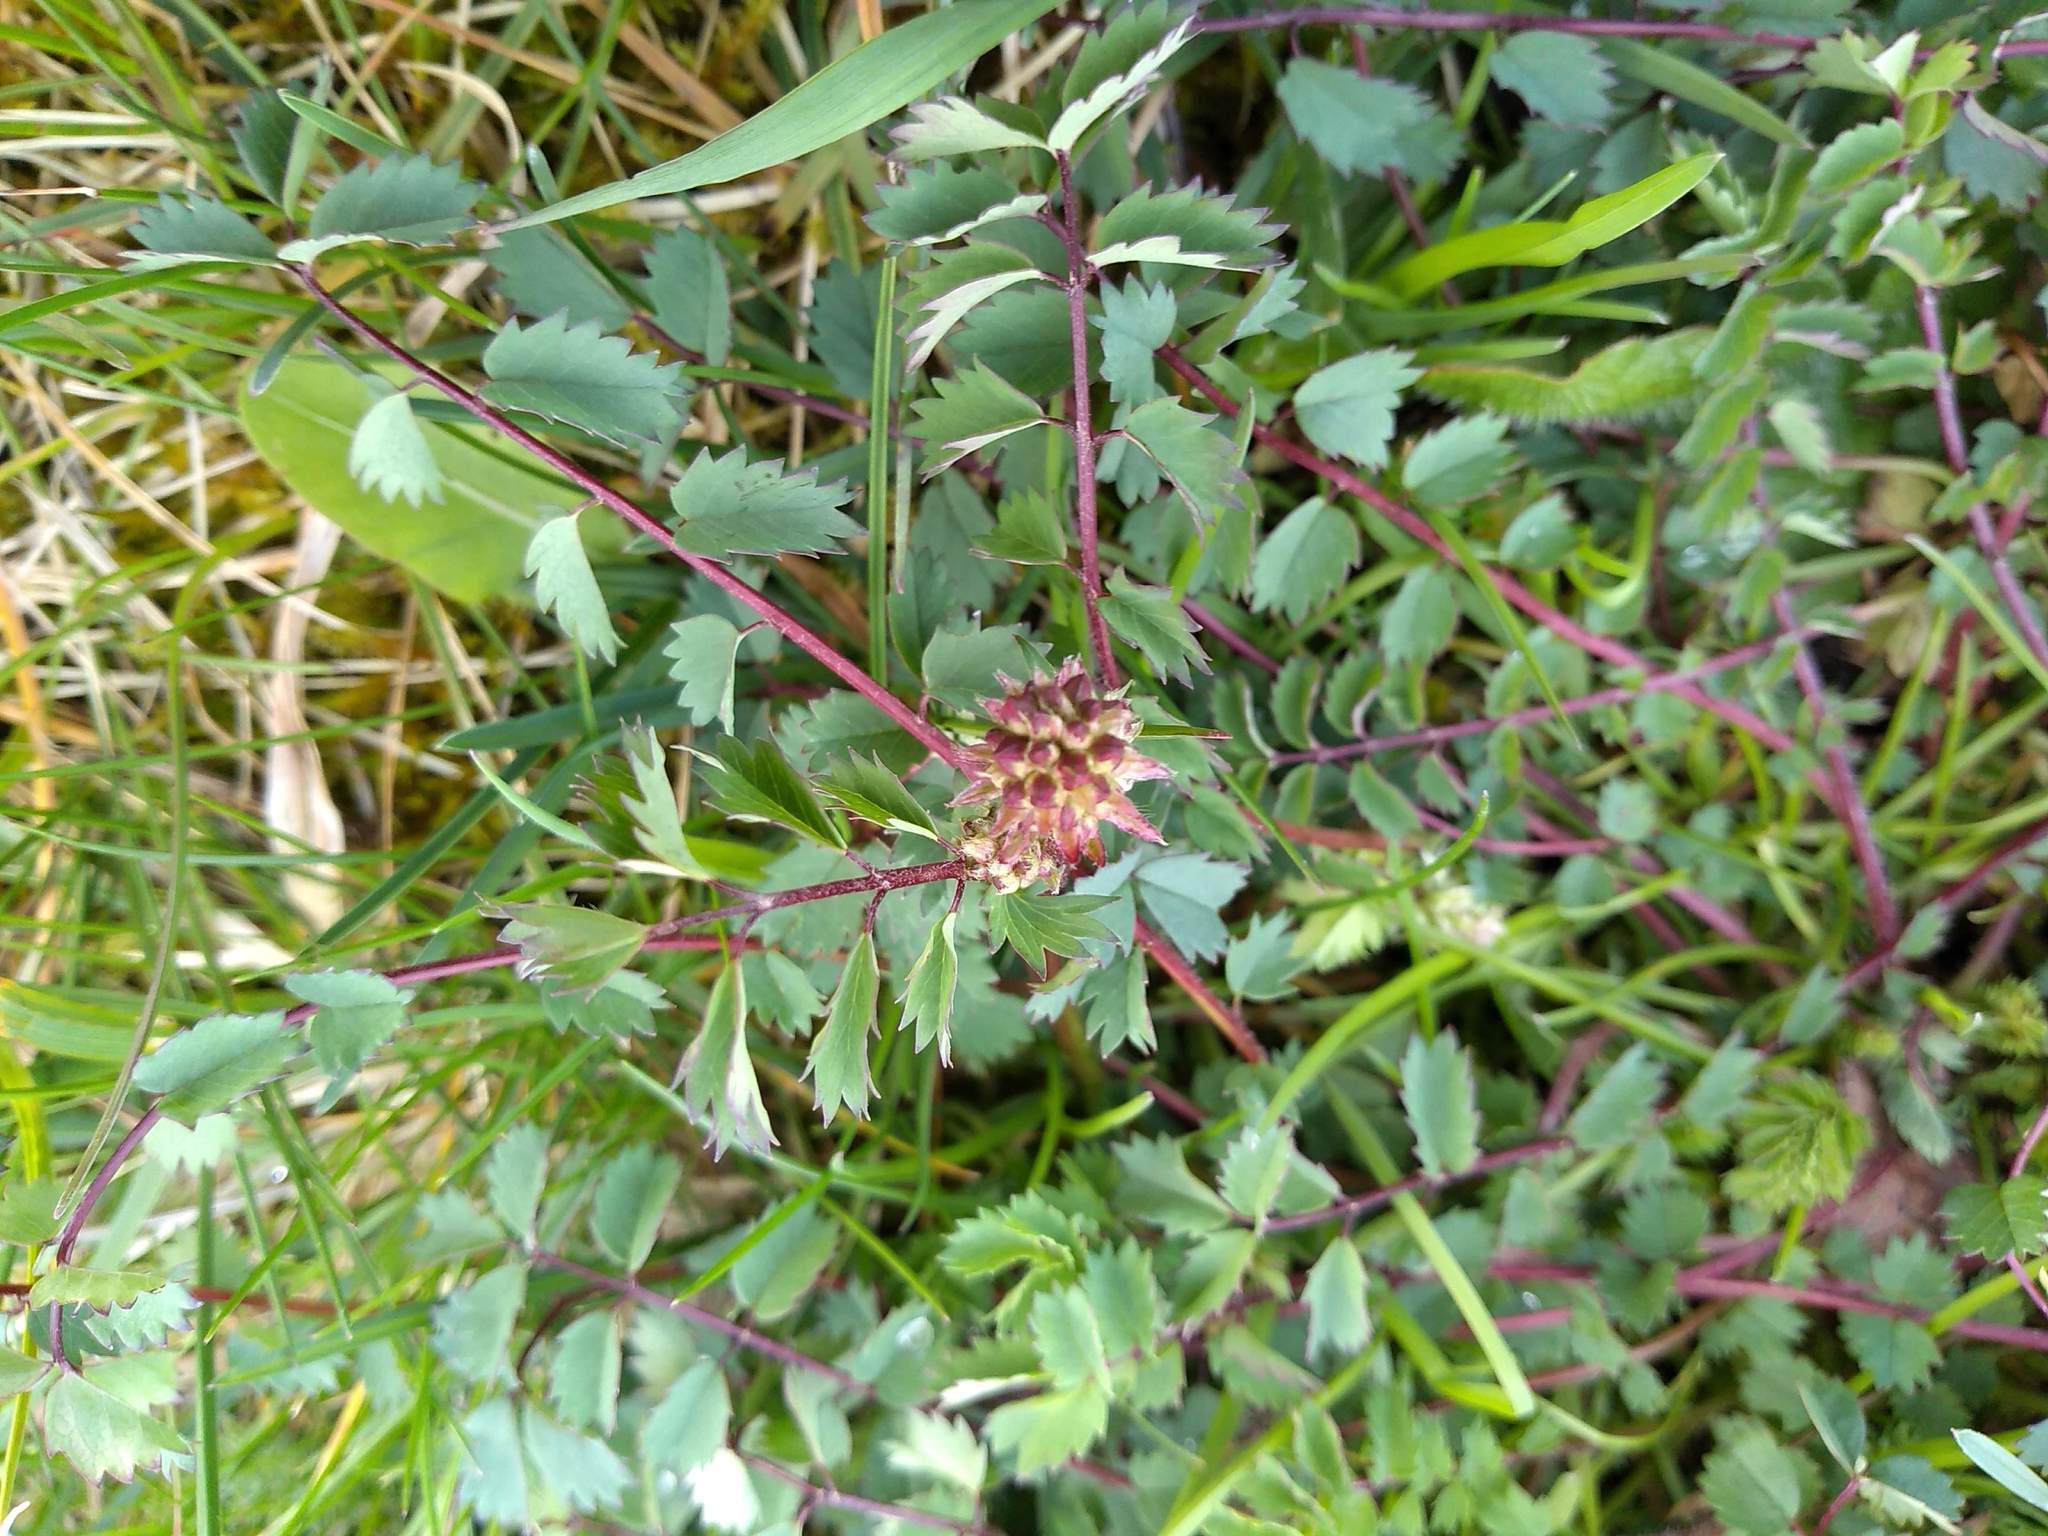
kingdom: Plantae
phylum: Tracheophyta
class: Magnoliopsida
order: Rosales
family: Rosaceae
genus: Poterium
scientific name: Poterium sanguisorba
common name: Salad burnet
